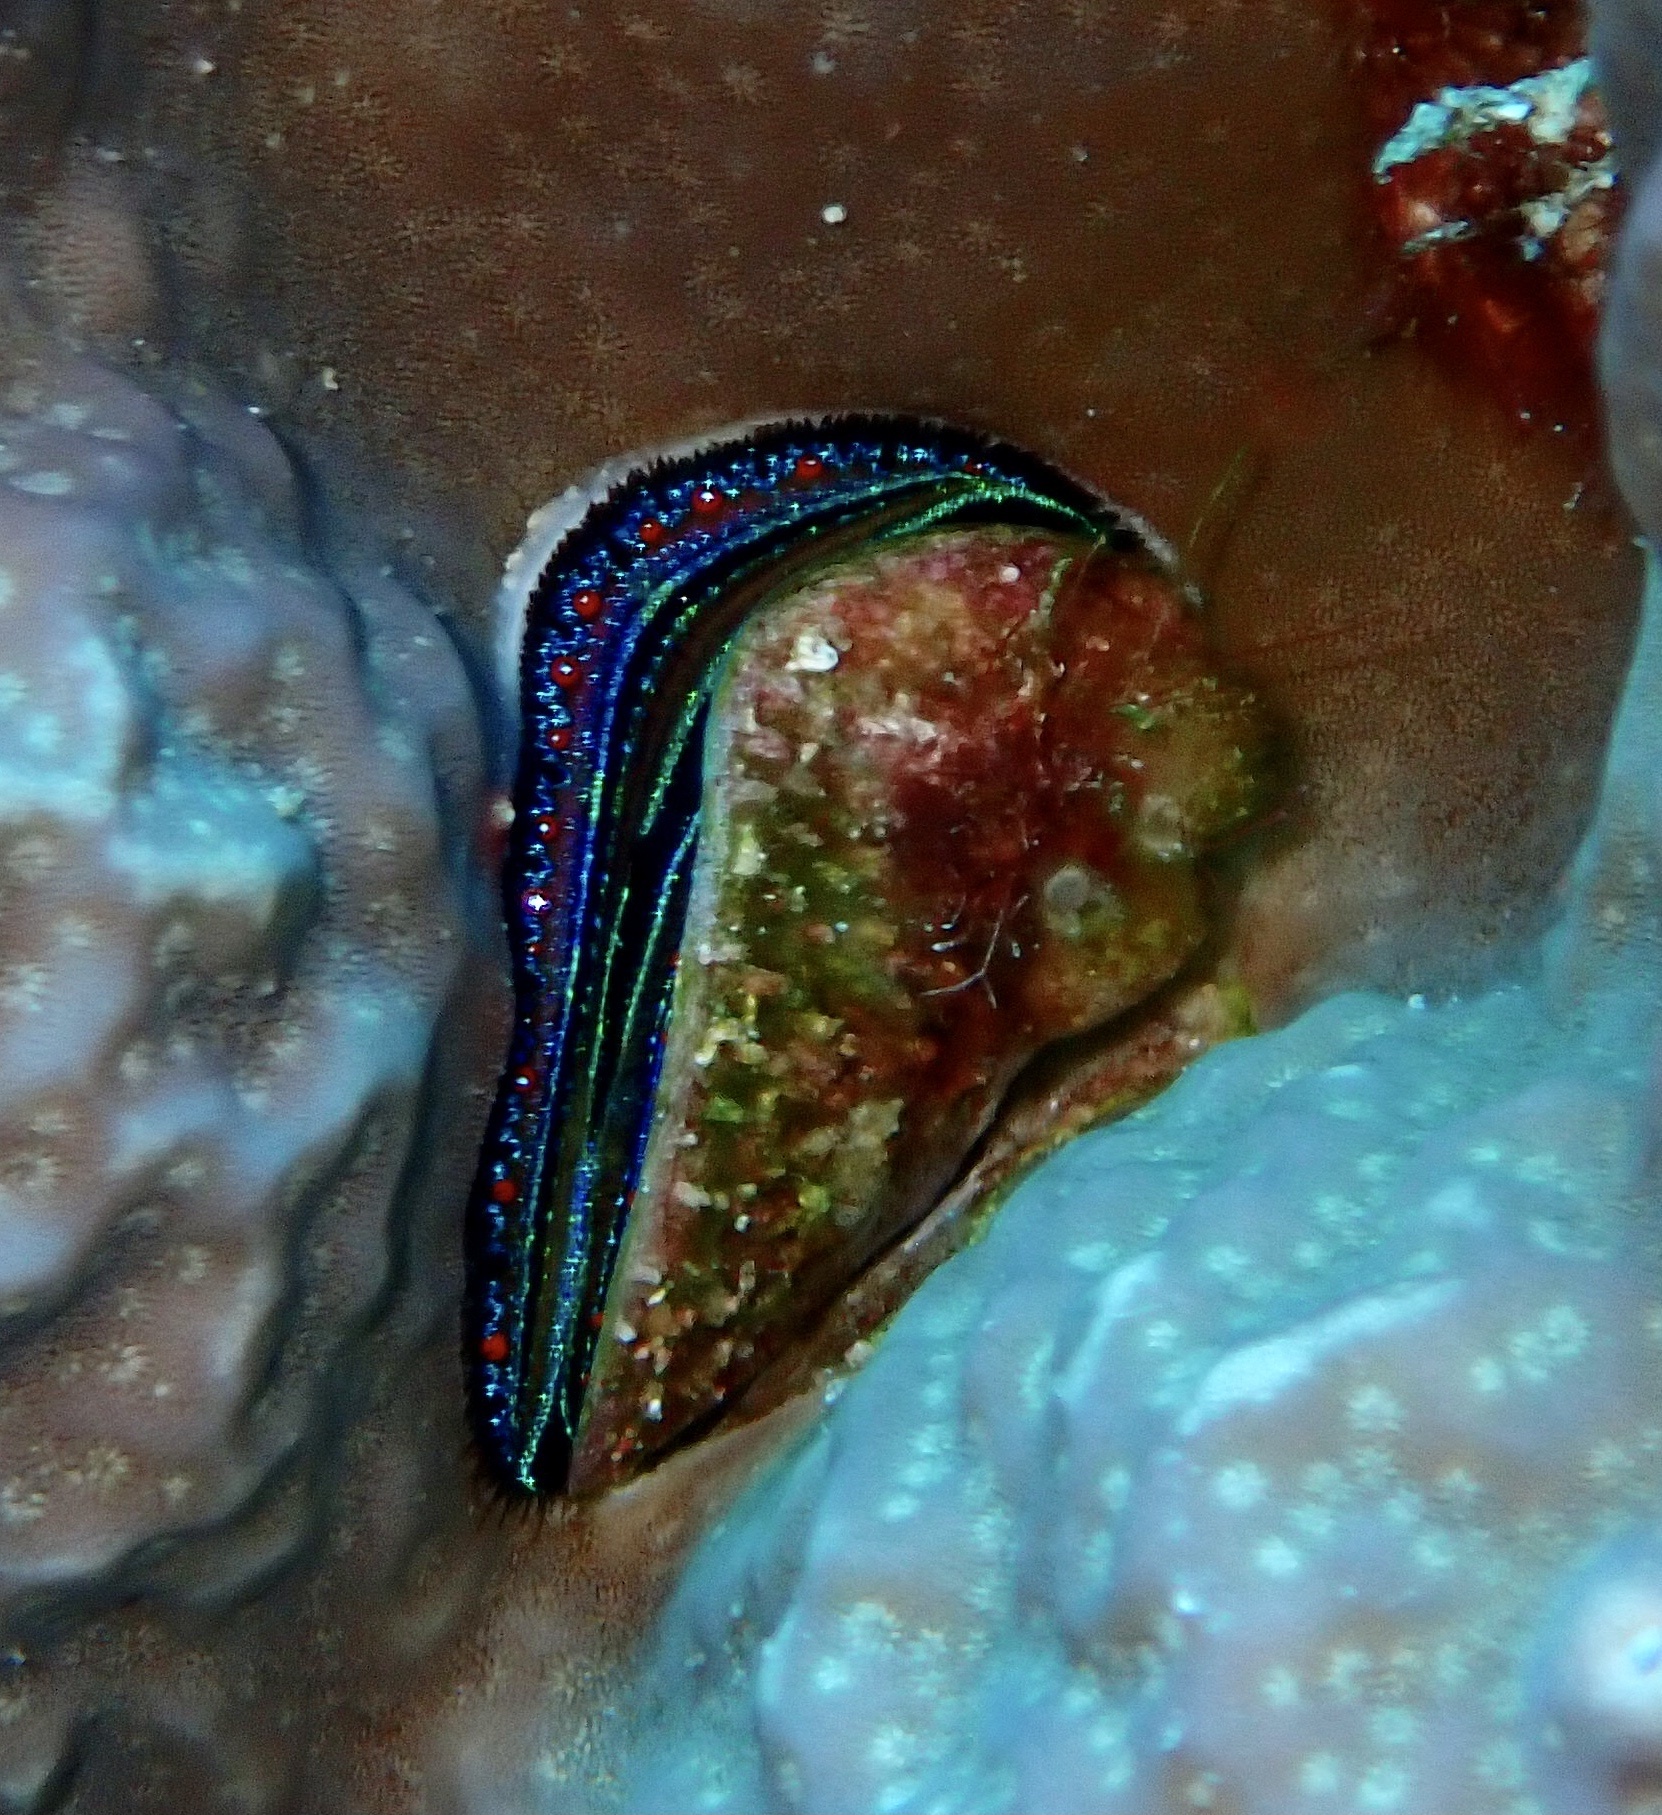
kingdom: Animalia
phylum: Mollusca
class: Bivalvia
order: Pectinida
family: Pectinidae
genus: Pedum
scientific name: Pedum spondyloideum
